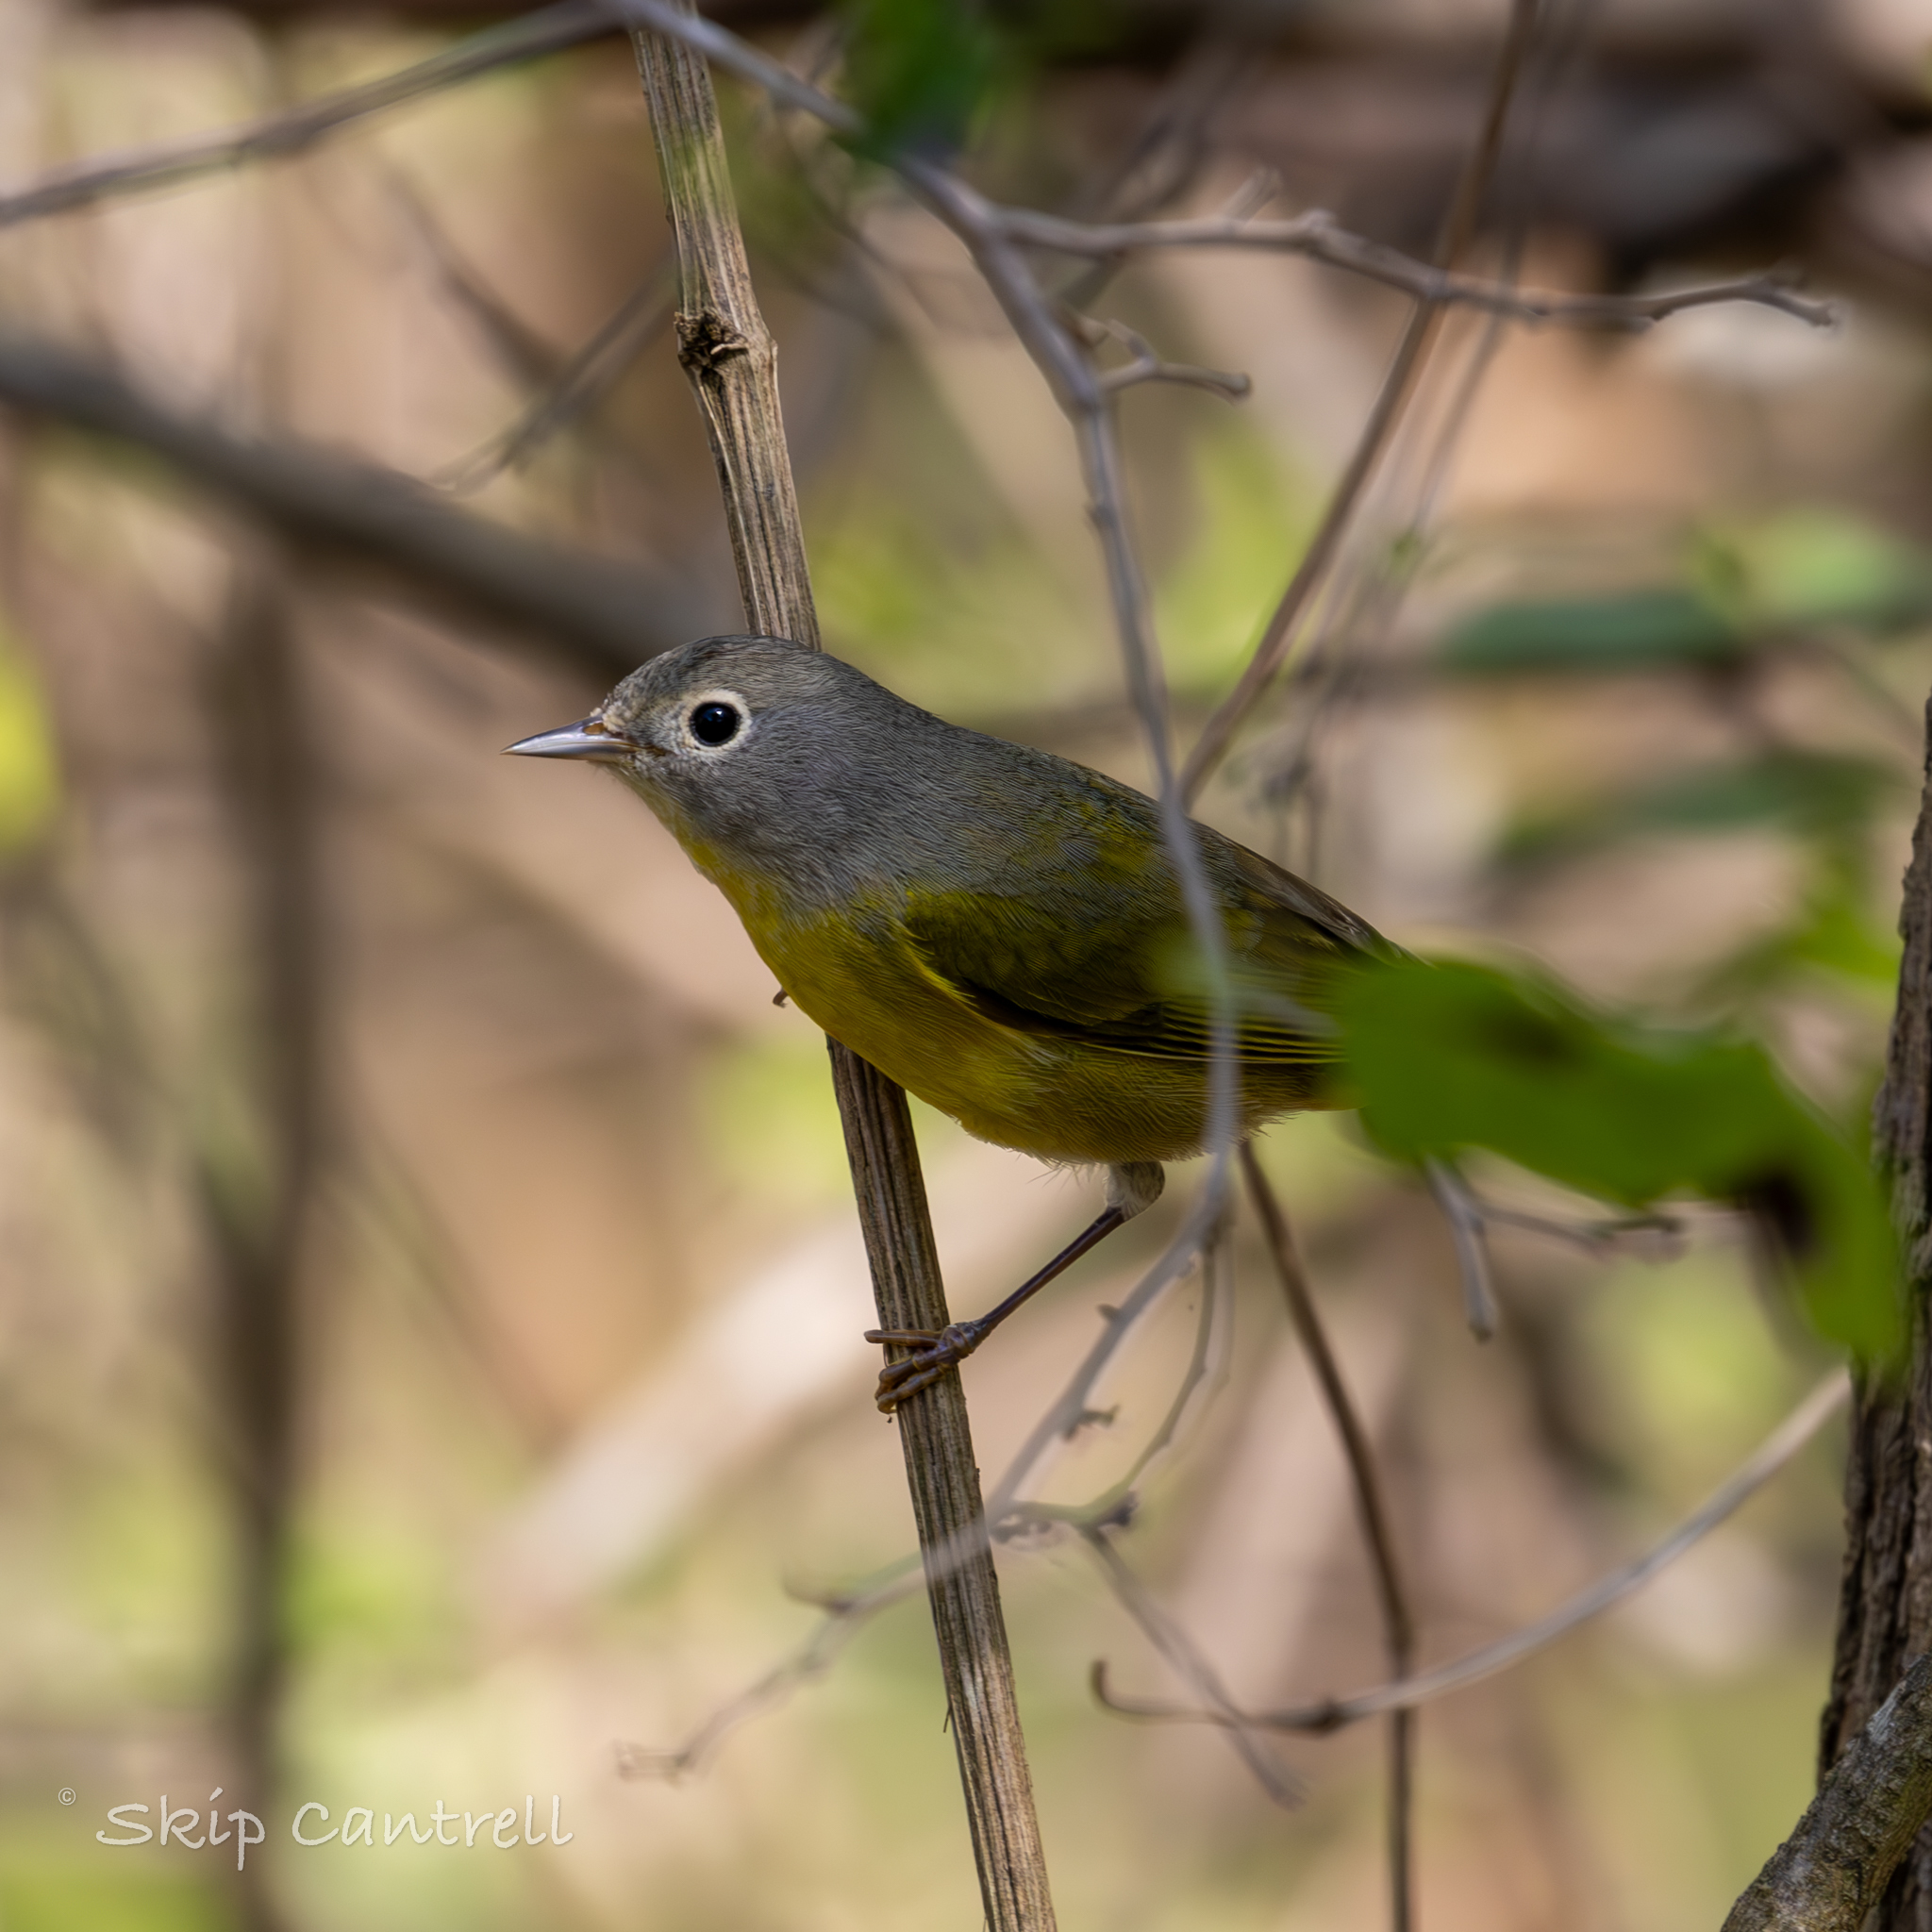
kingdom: Animalia
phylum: Chordata
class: Aves
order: Passeriformes
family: Parulidae
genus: Leiothlypis
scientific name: Leiothlypis ruficapilla
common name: Nashville warbler
